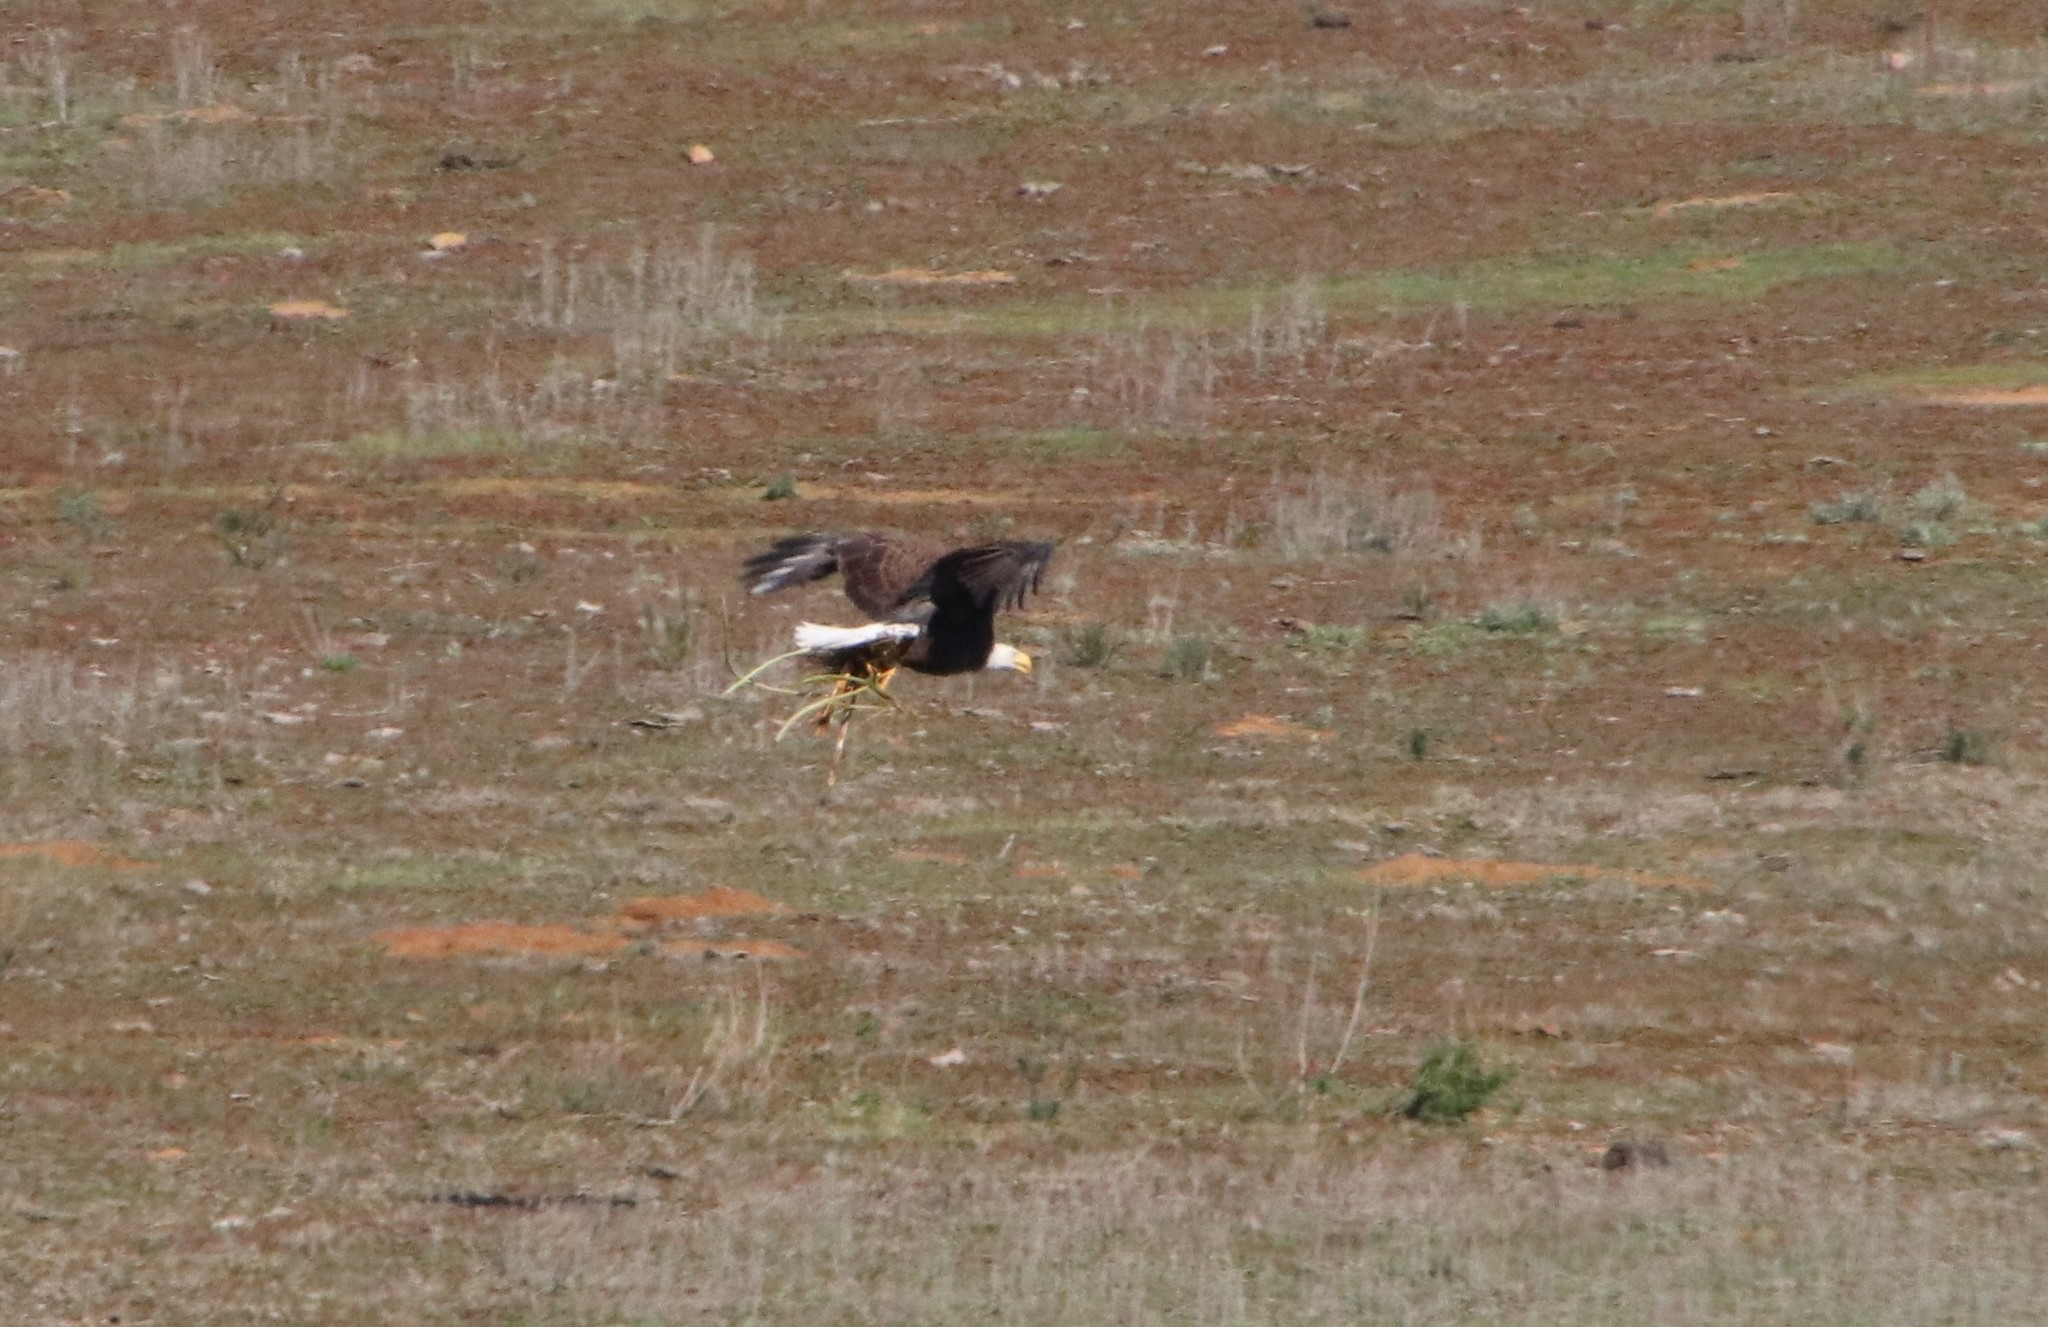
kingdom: Animalia
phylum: Chordata
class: Aves
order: Accipitriformes
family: Accipitridae
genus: Haliaeetus
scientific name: Haliaeetus leucocephalus
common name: Bald eagle
